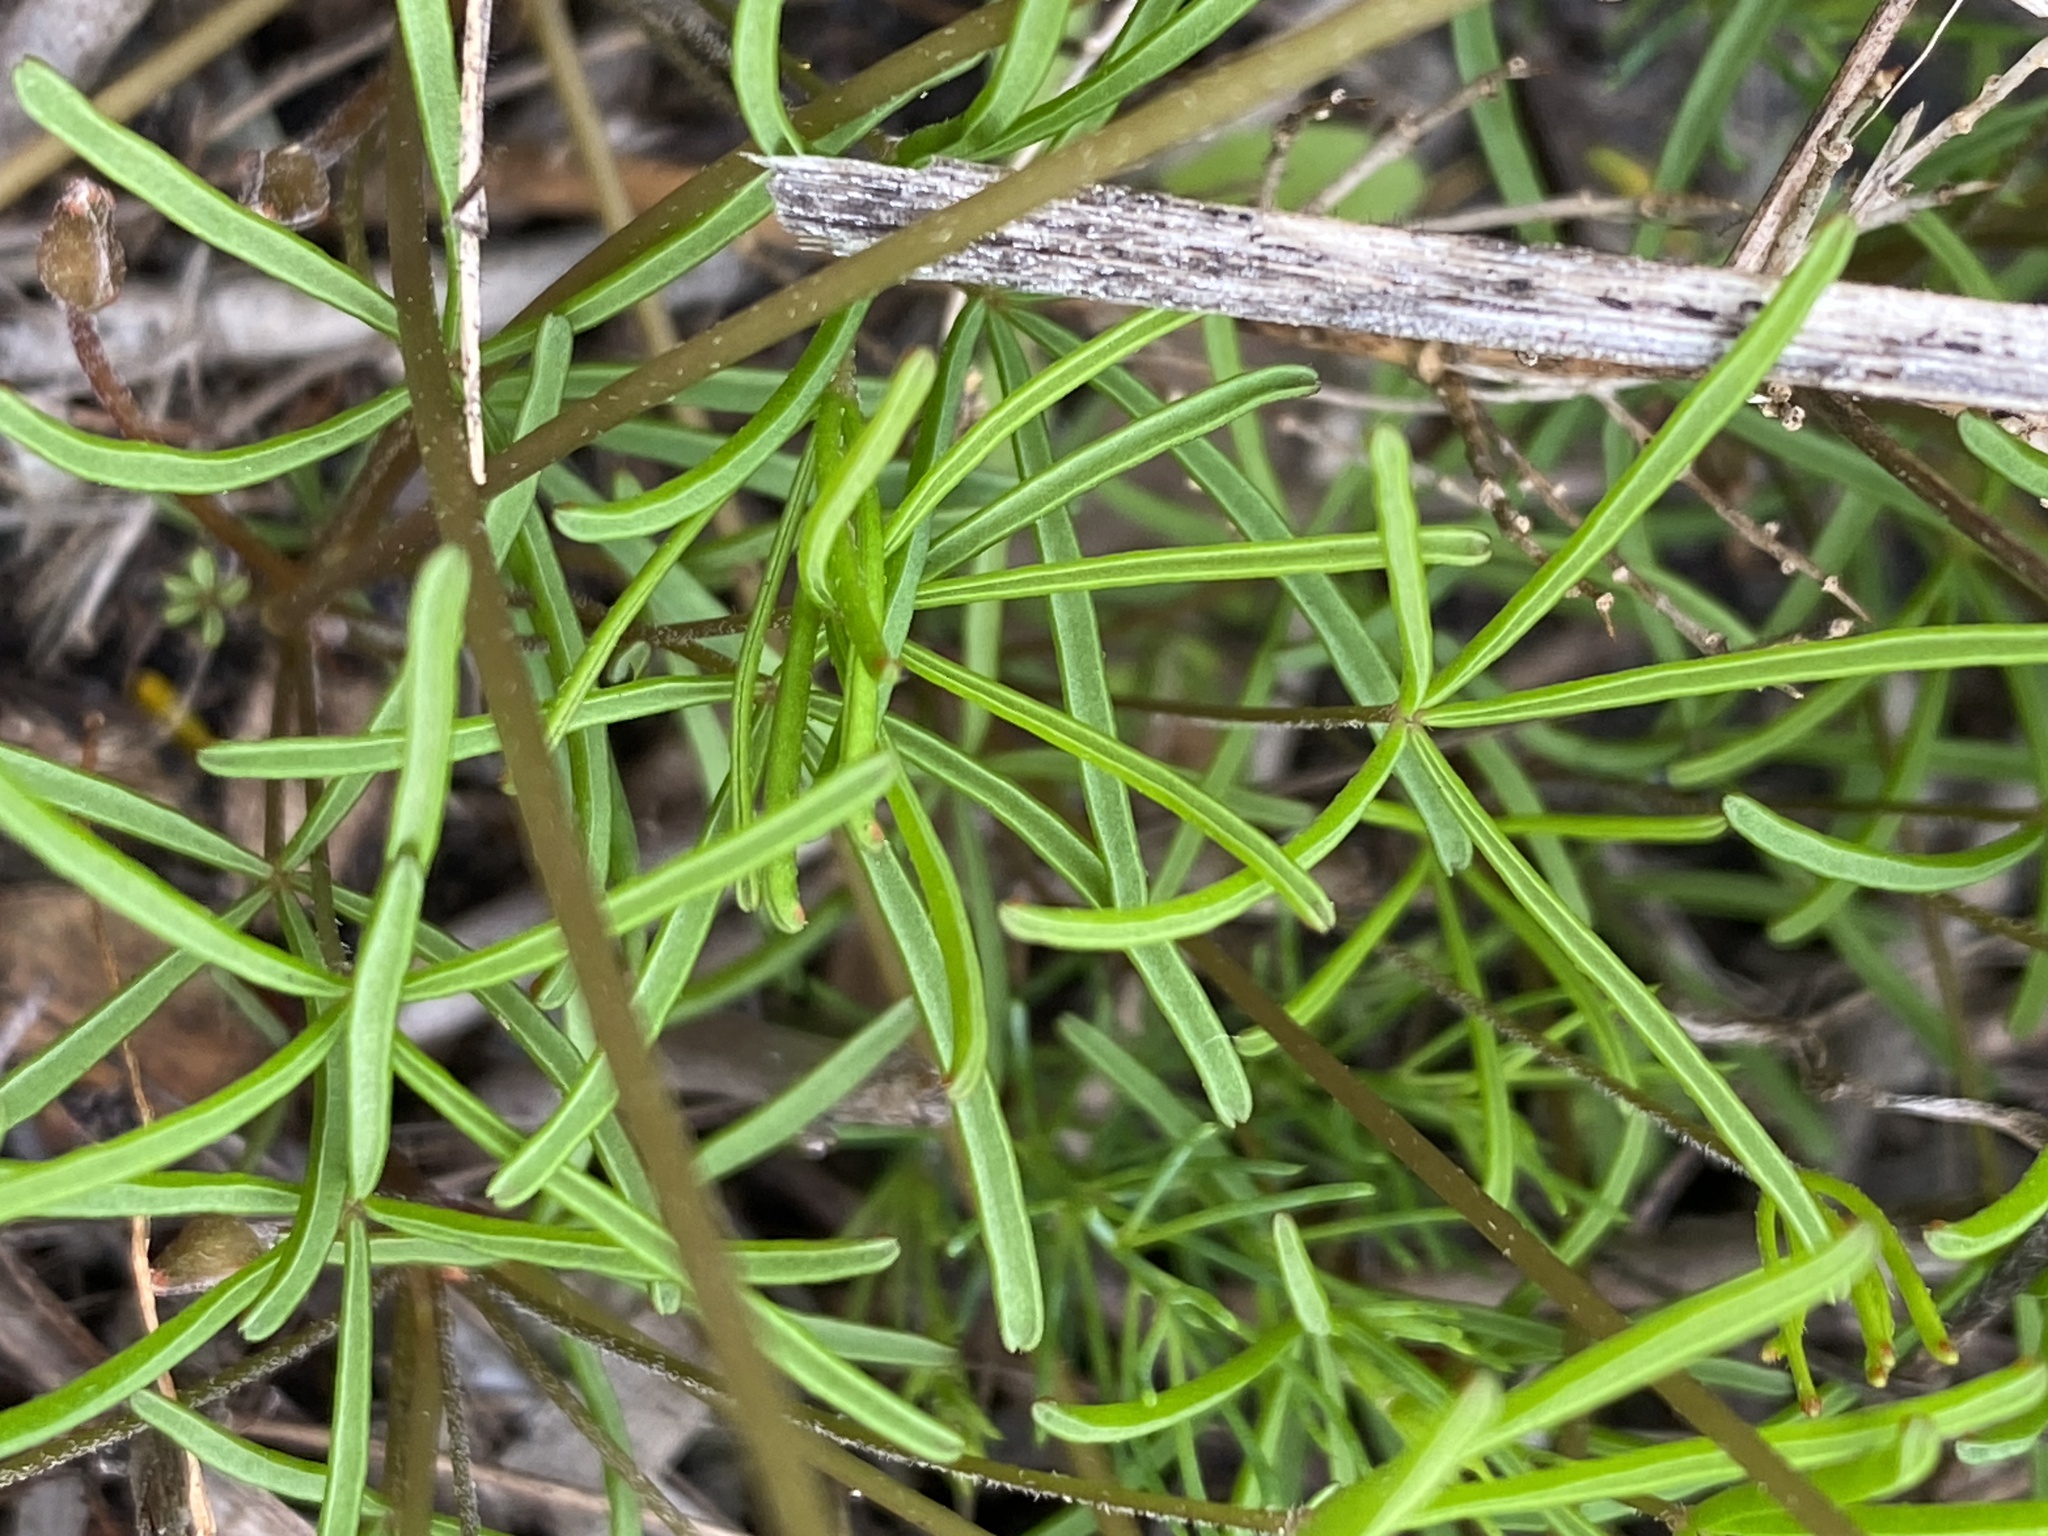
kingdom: Plantae
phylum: Tracheophyta
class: Magnoliopsida
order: Oxalidales
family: Oxalidaceae
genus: Oxalis
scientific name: Oxalis polyphylla
